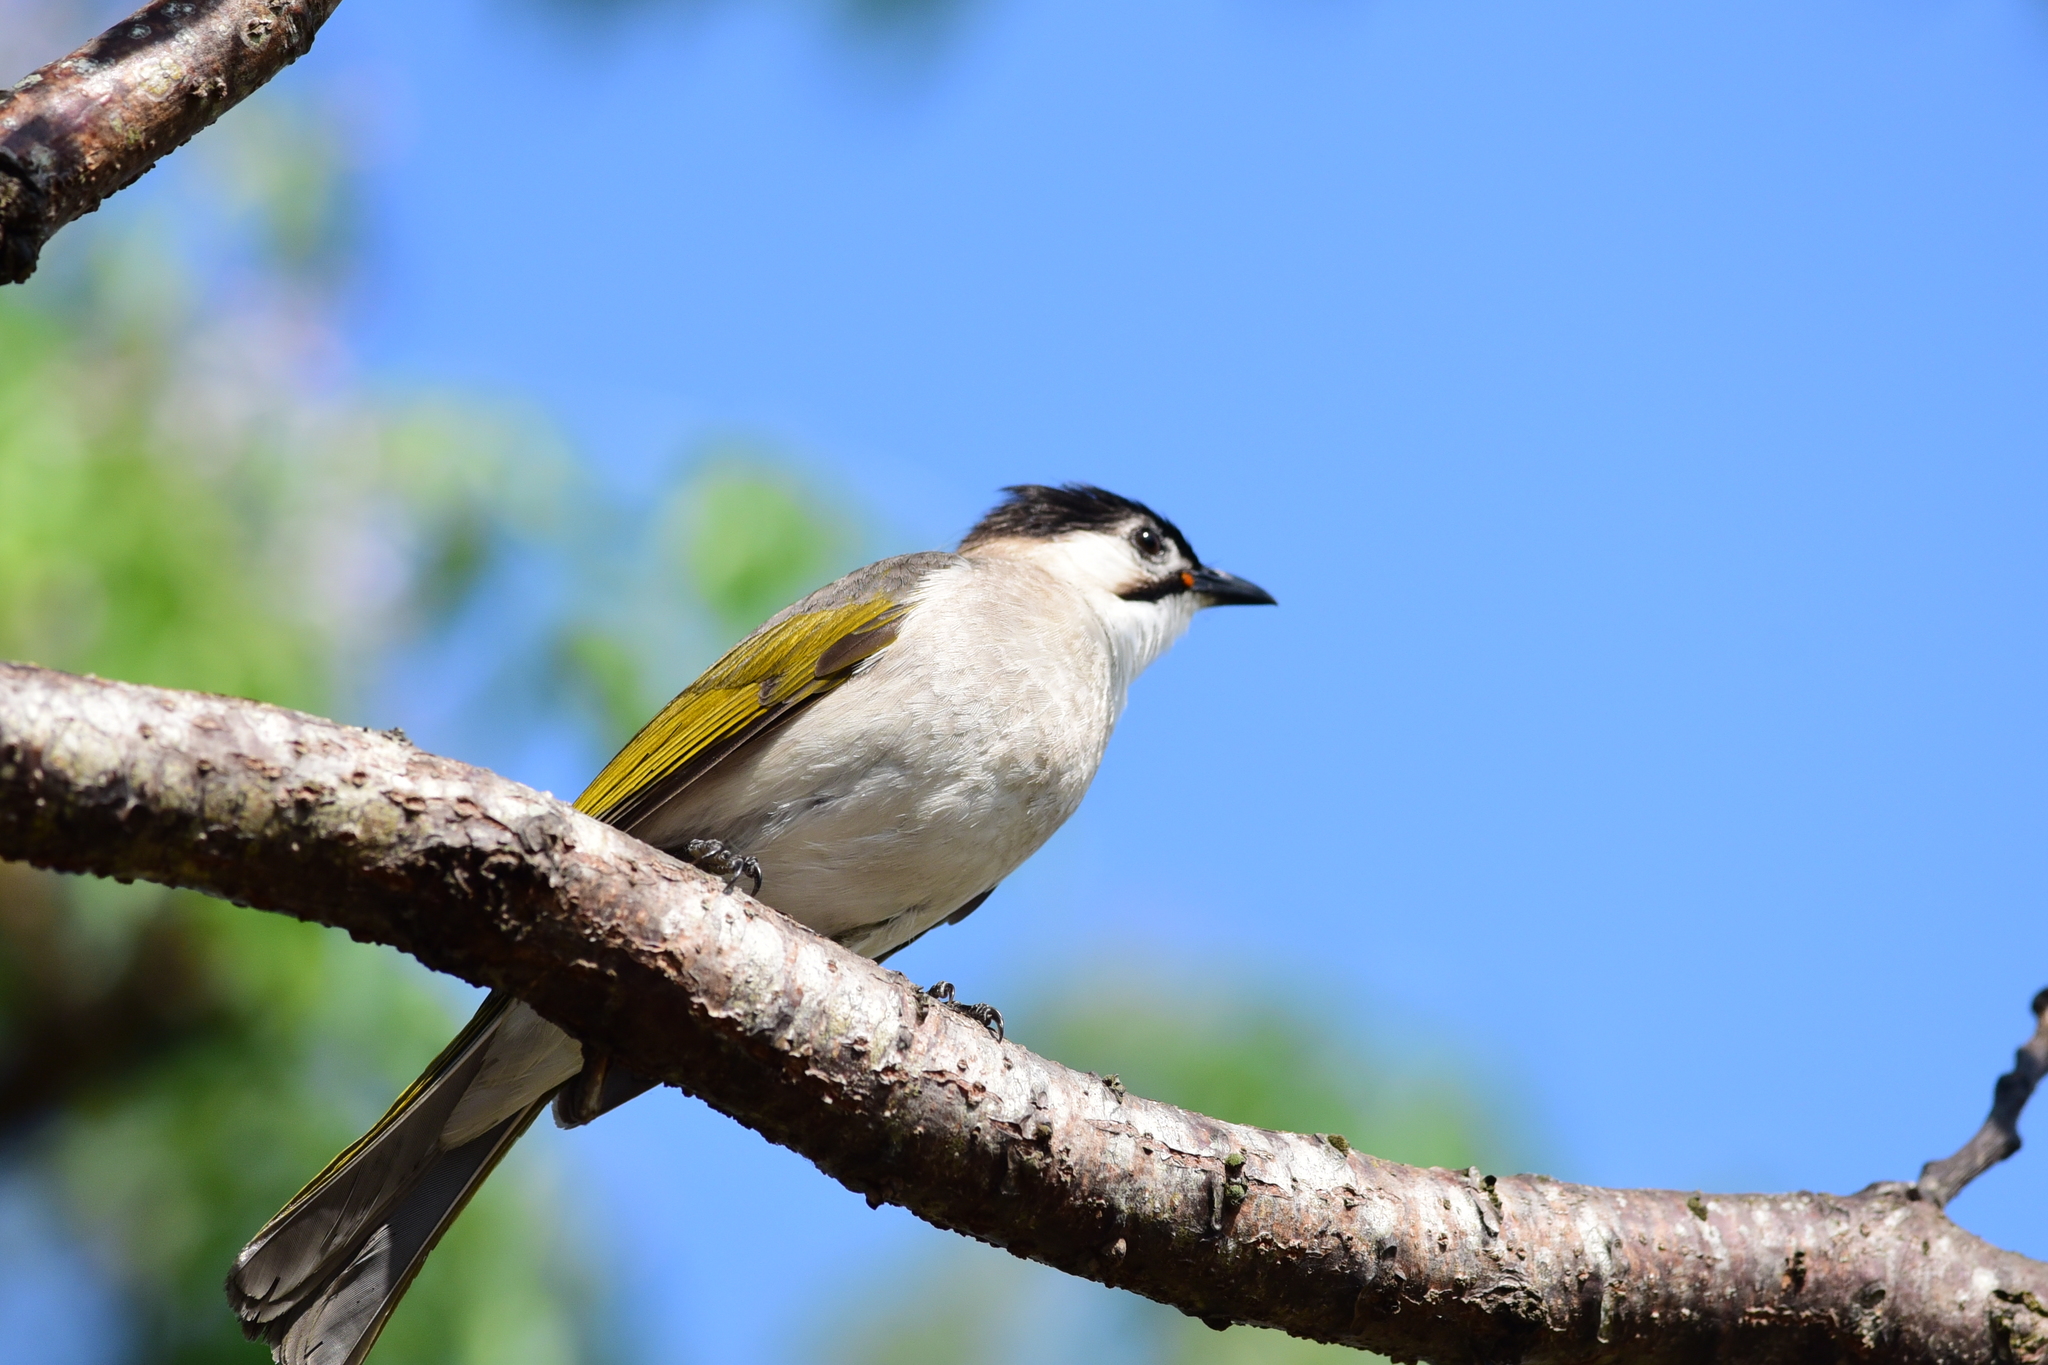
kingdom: Animalia
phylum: Chordata
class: Aves
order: Passeriformes
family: Pycnonotidae
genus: Pycnonotus
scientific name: Pycnonotus taivanus
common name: Styan's bulbul
